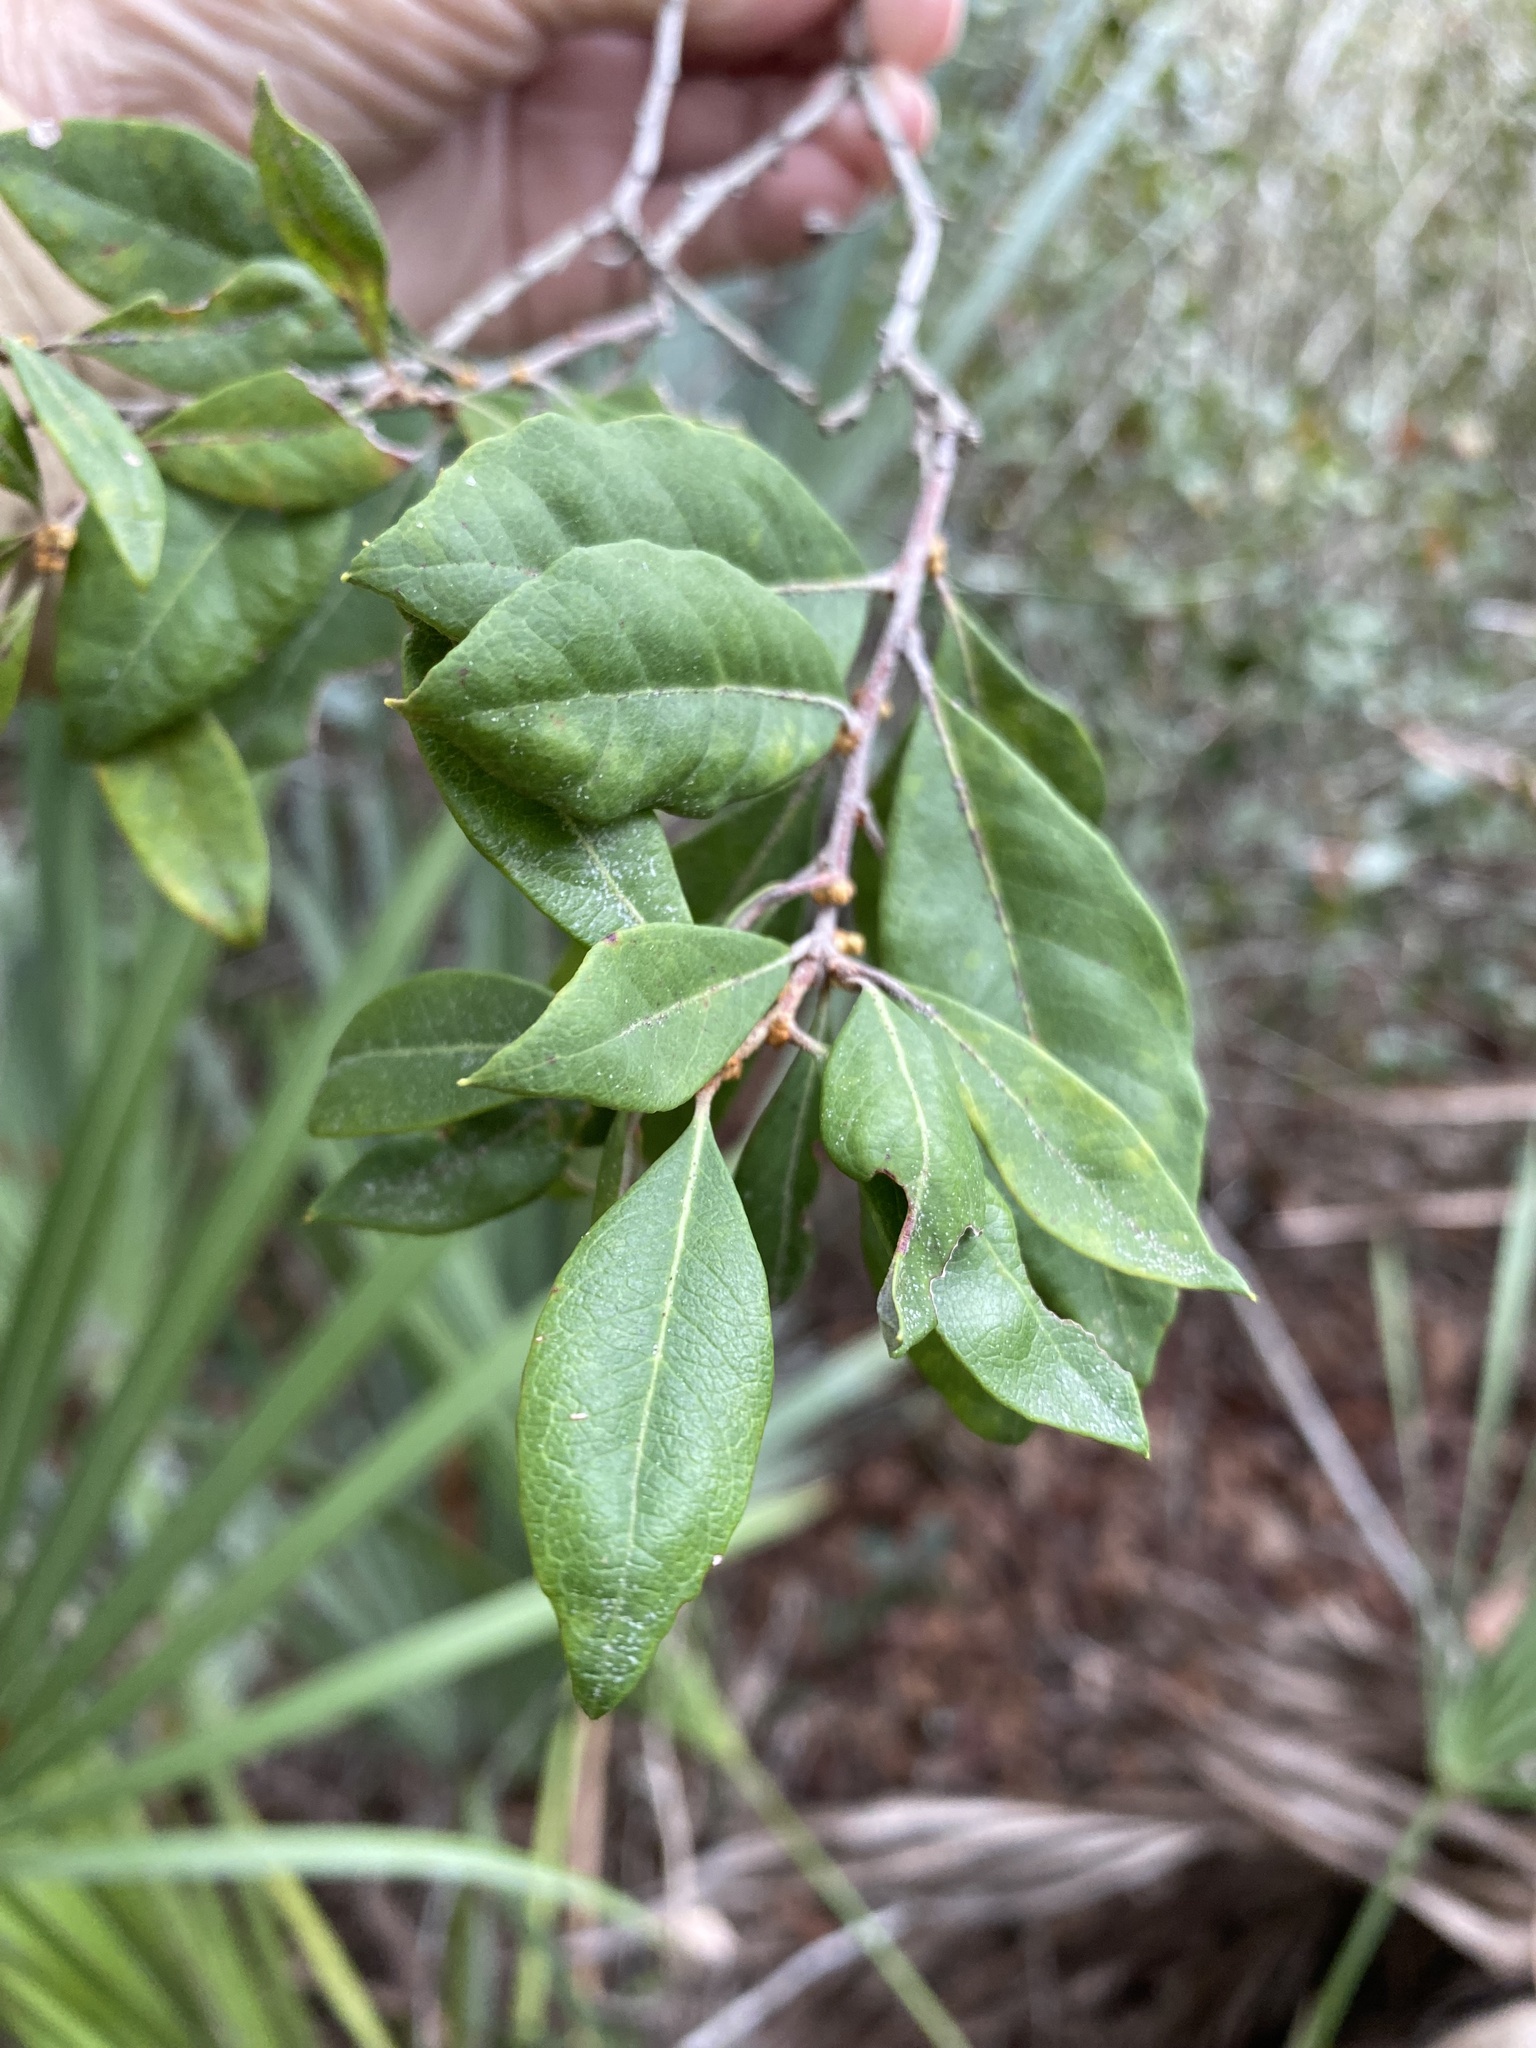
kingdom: Plantae
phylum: Tracheophyta
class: Magnoliopsida
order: Ericales
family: Ericaceae
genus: Lyonia
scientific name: Lyonia ferruginea
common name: Rusty lyonia
